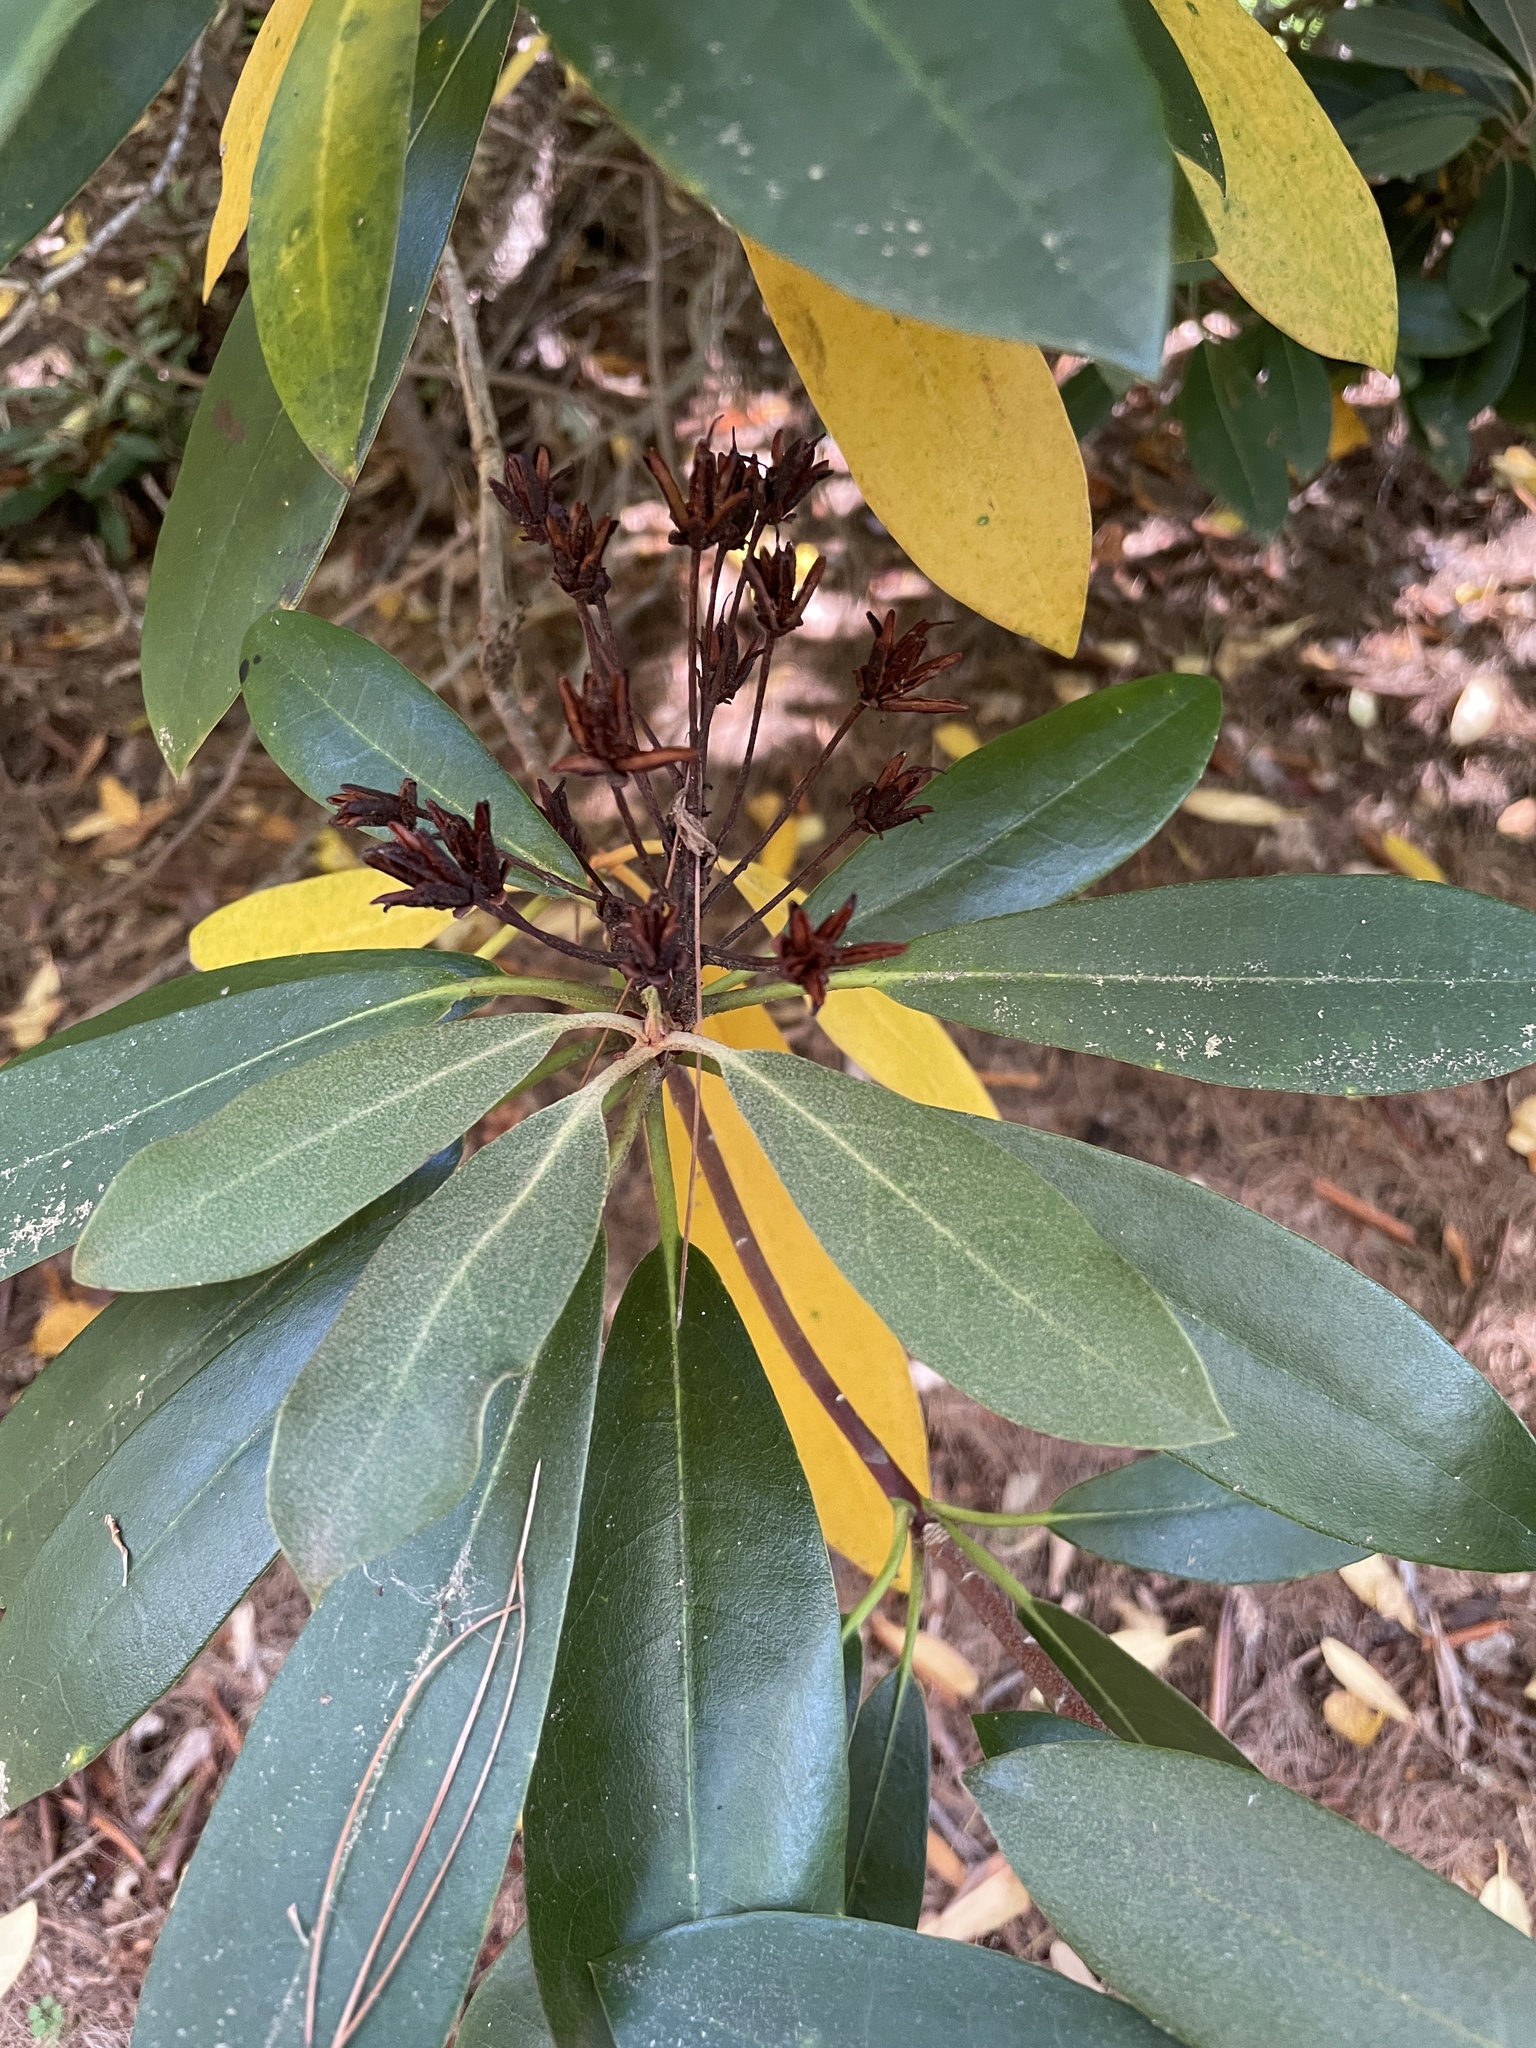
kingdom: Plantae
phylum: Tracheophyta
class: Magnoliopsida
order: Ericales
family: Ericaceae
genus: Rhododendron
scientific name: Rhododendron maximum
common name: Great rhododendron
